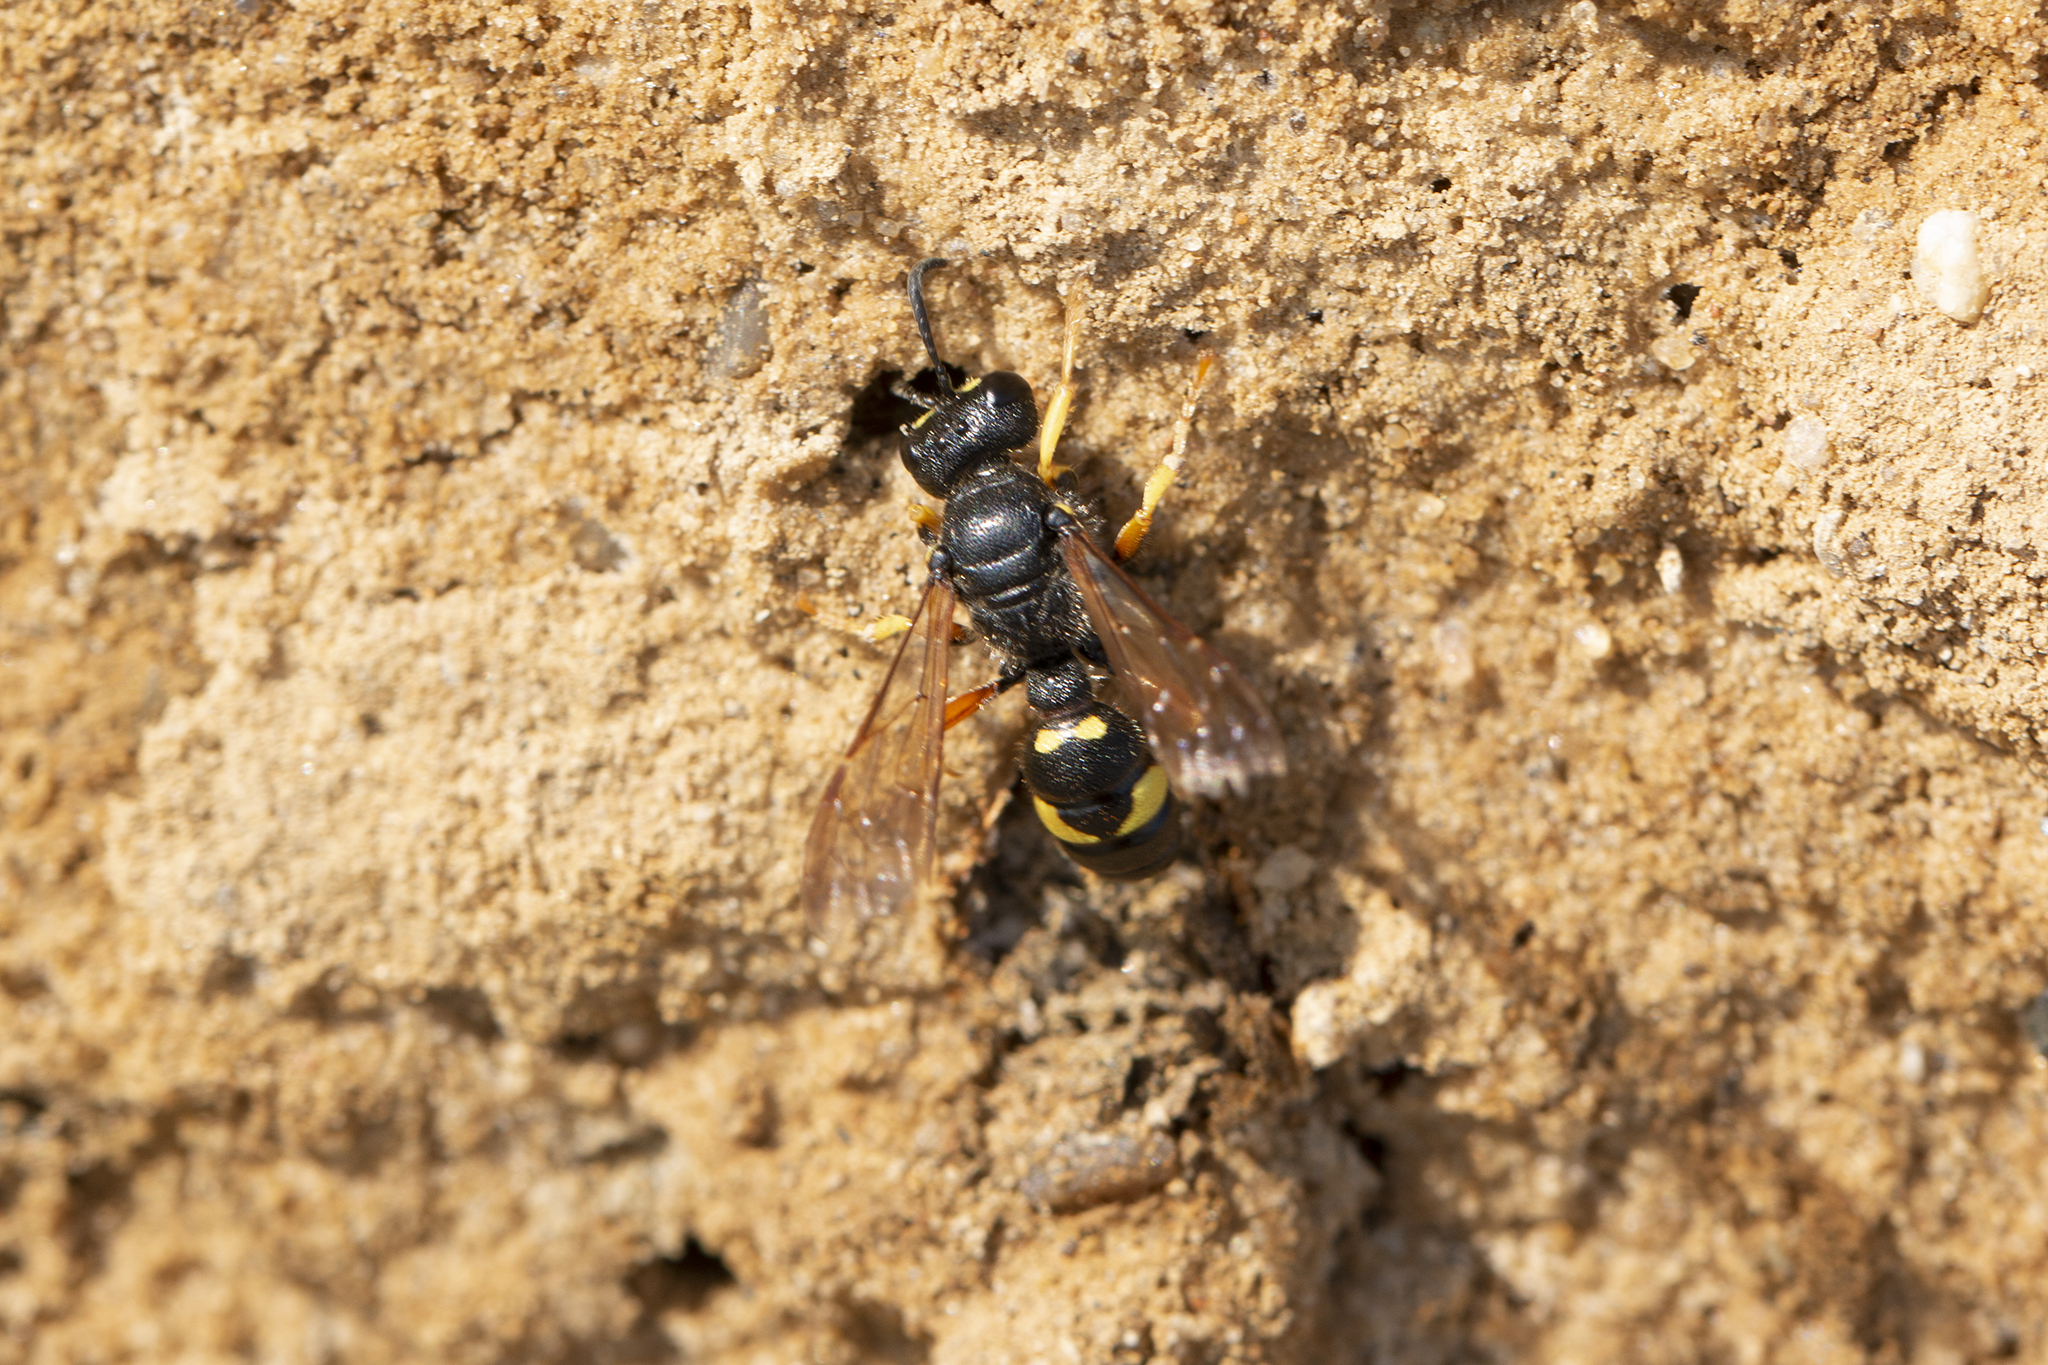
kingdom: Animalia
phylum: Arthropoda
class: Insecta
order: Hymenoptera
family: Crabronidae
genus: Cerceris
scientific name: Cerceris rybyensis
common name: Ornate tailed digger wasp
